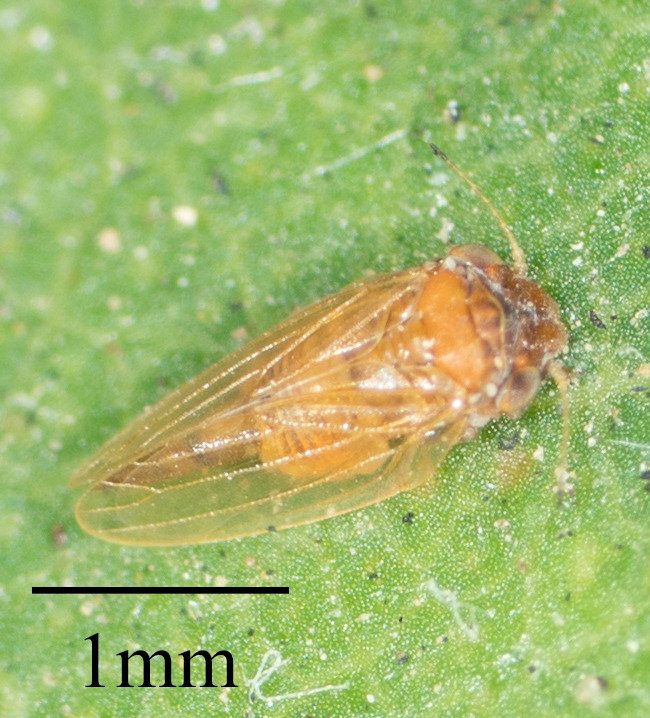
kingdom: Animalia
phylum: Arthropoda
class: Insecta
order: Hemiptera
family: Aphalaridae
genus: Ctenarytaina
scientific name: Ctenarytaina longicauda
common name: Tristania psyllid
